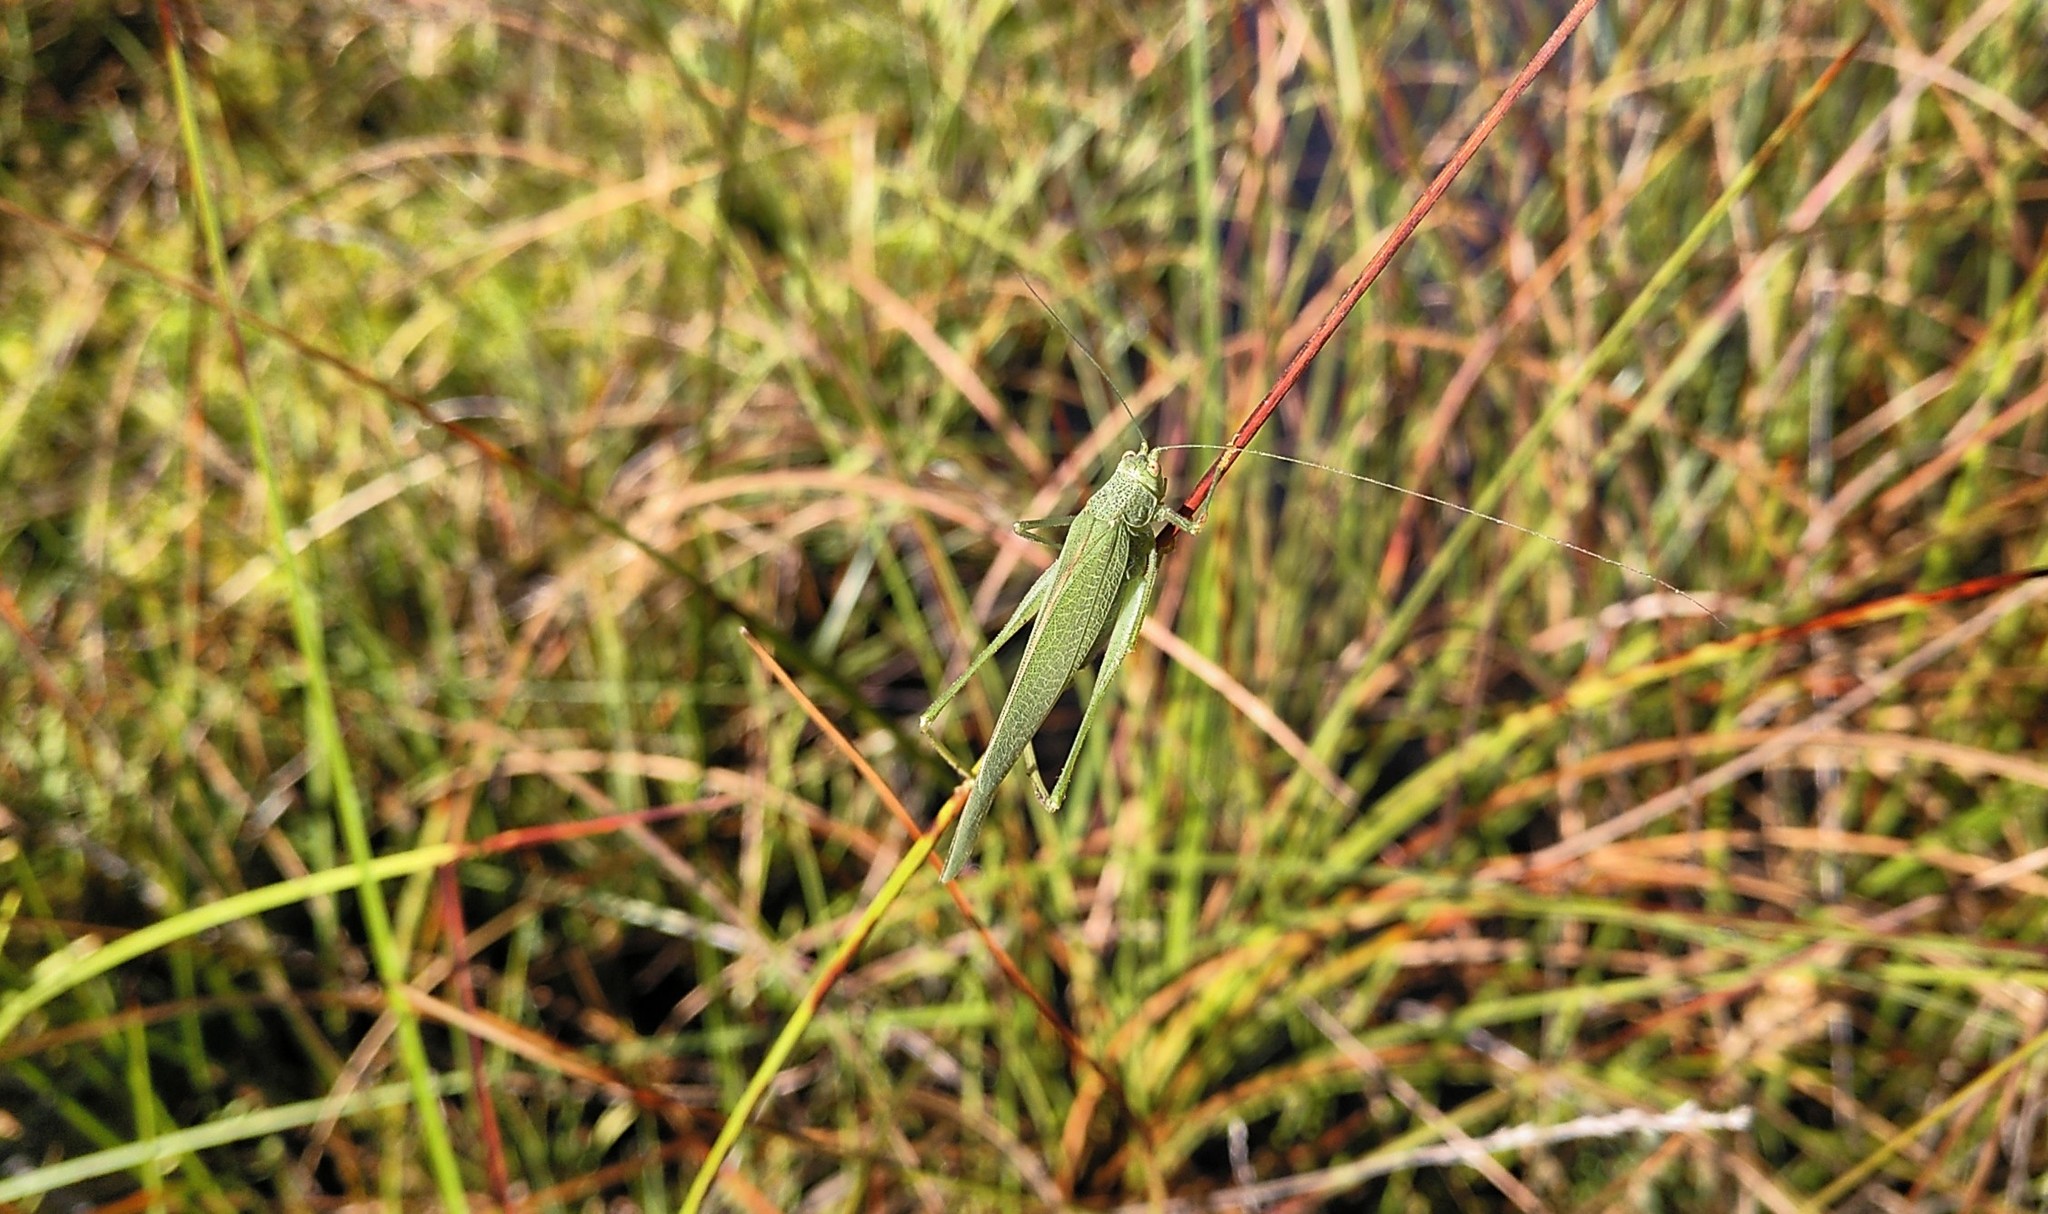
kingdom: Animalia
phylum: Arthropoda
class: Insecta
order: Orthoptera
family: Tettigoniidae
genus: Phaneroptera
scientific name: Phaneroptera nana
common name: Southern sickle bush-cricket
